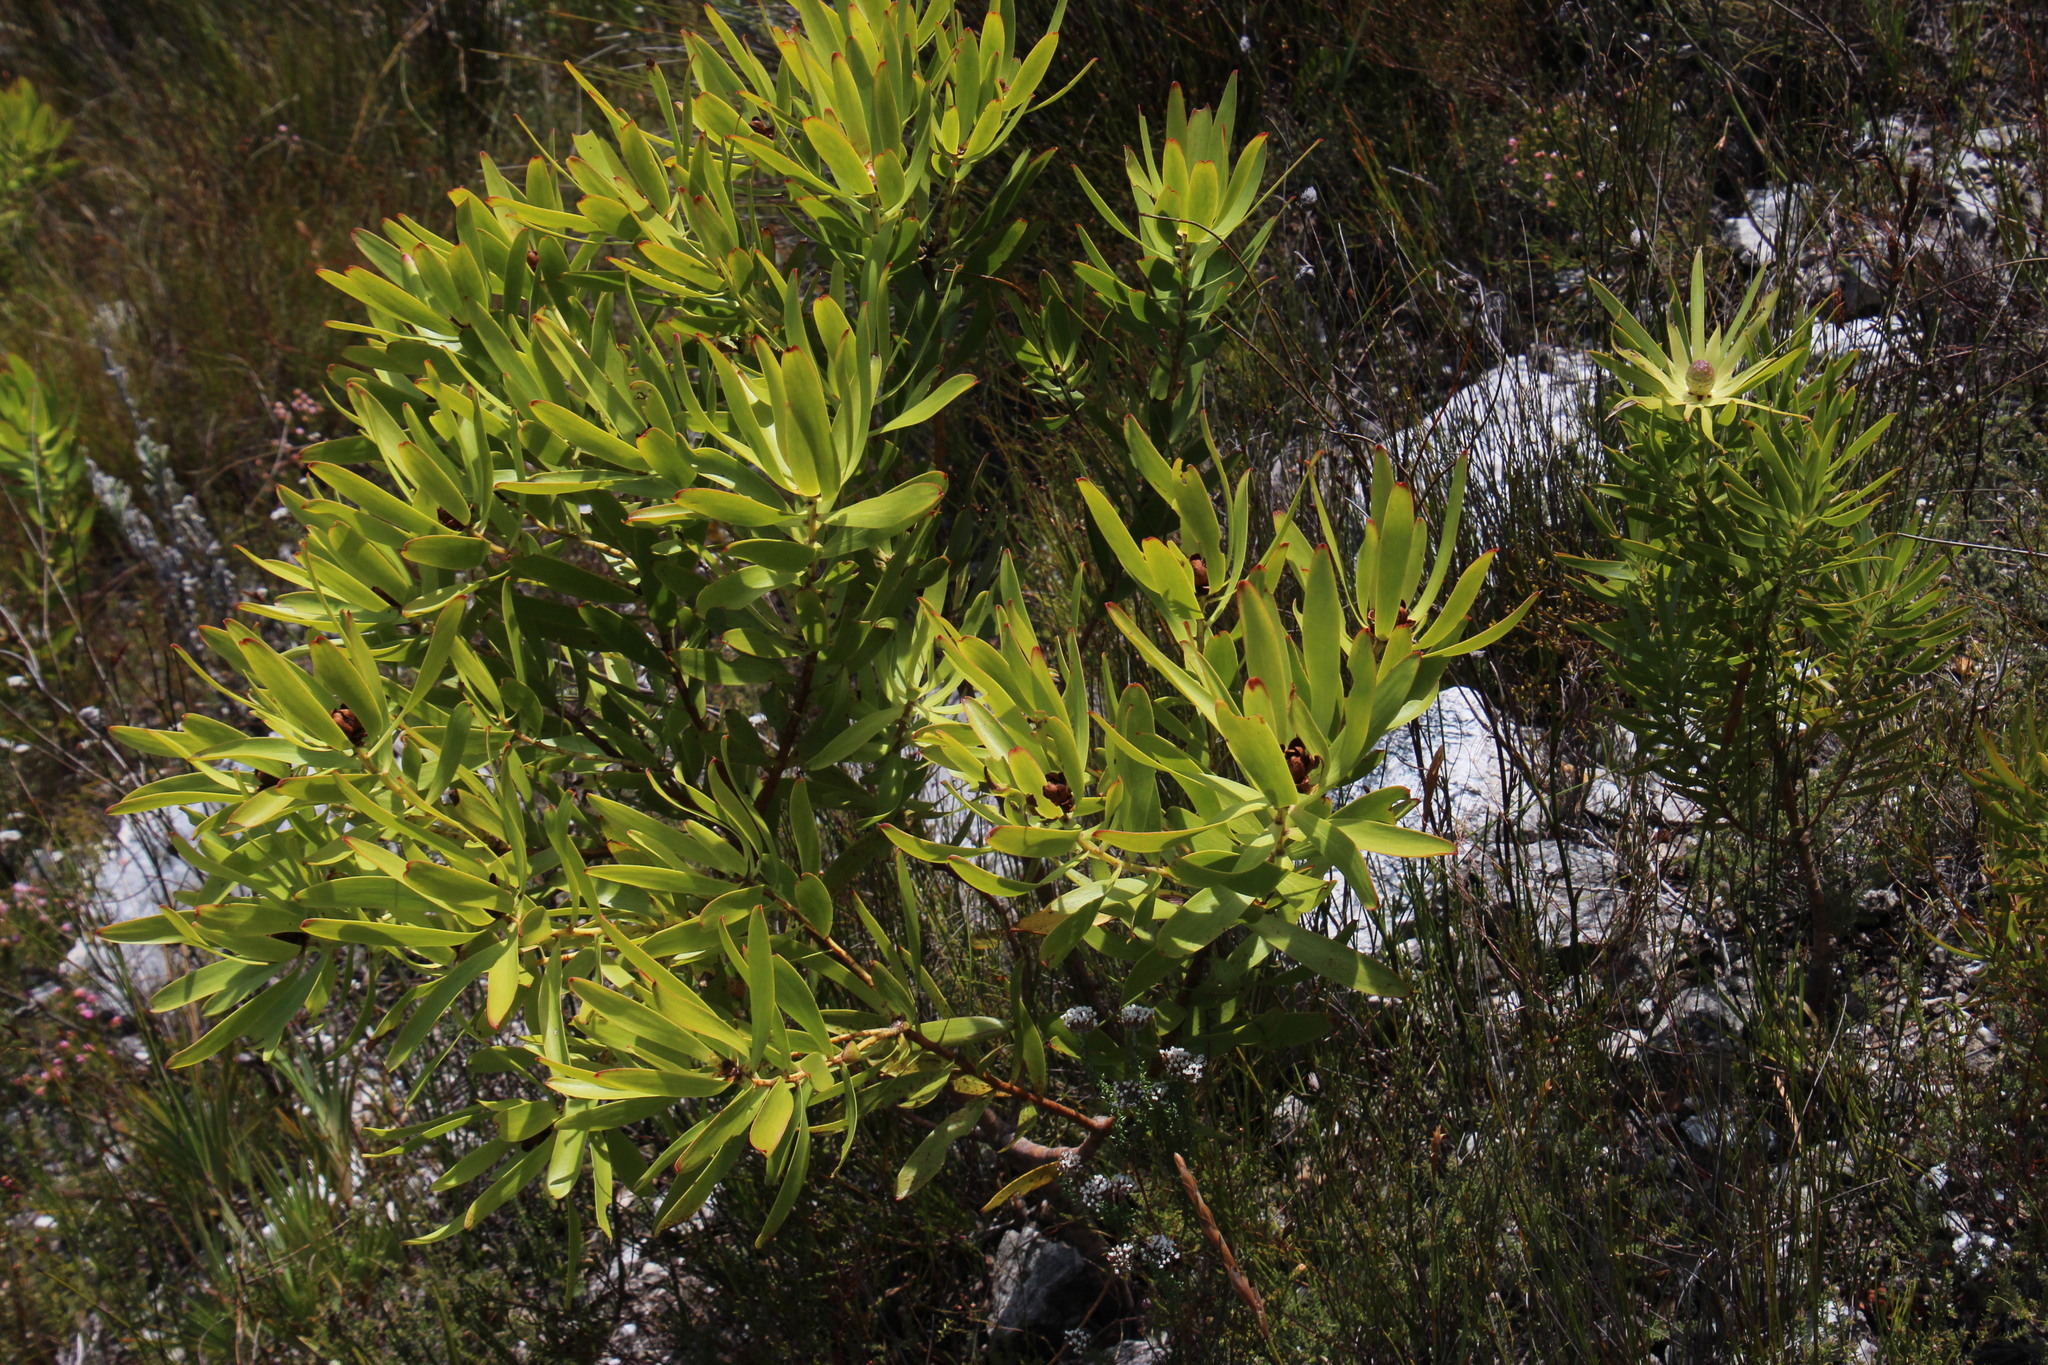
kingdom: Plantae
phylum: Tracheophyta
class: Magnoliopsida
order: Proteales
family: Proteaceae
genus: Leucadendron
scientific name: Leucadendron microcephalum
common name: Oilbract conebush
